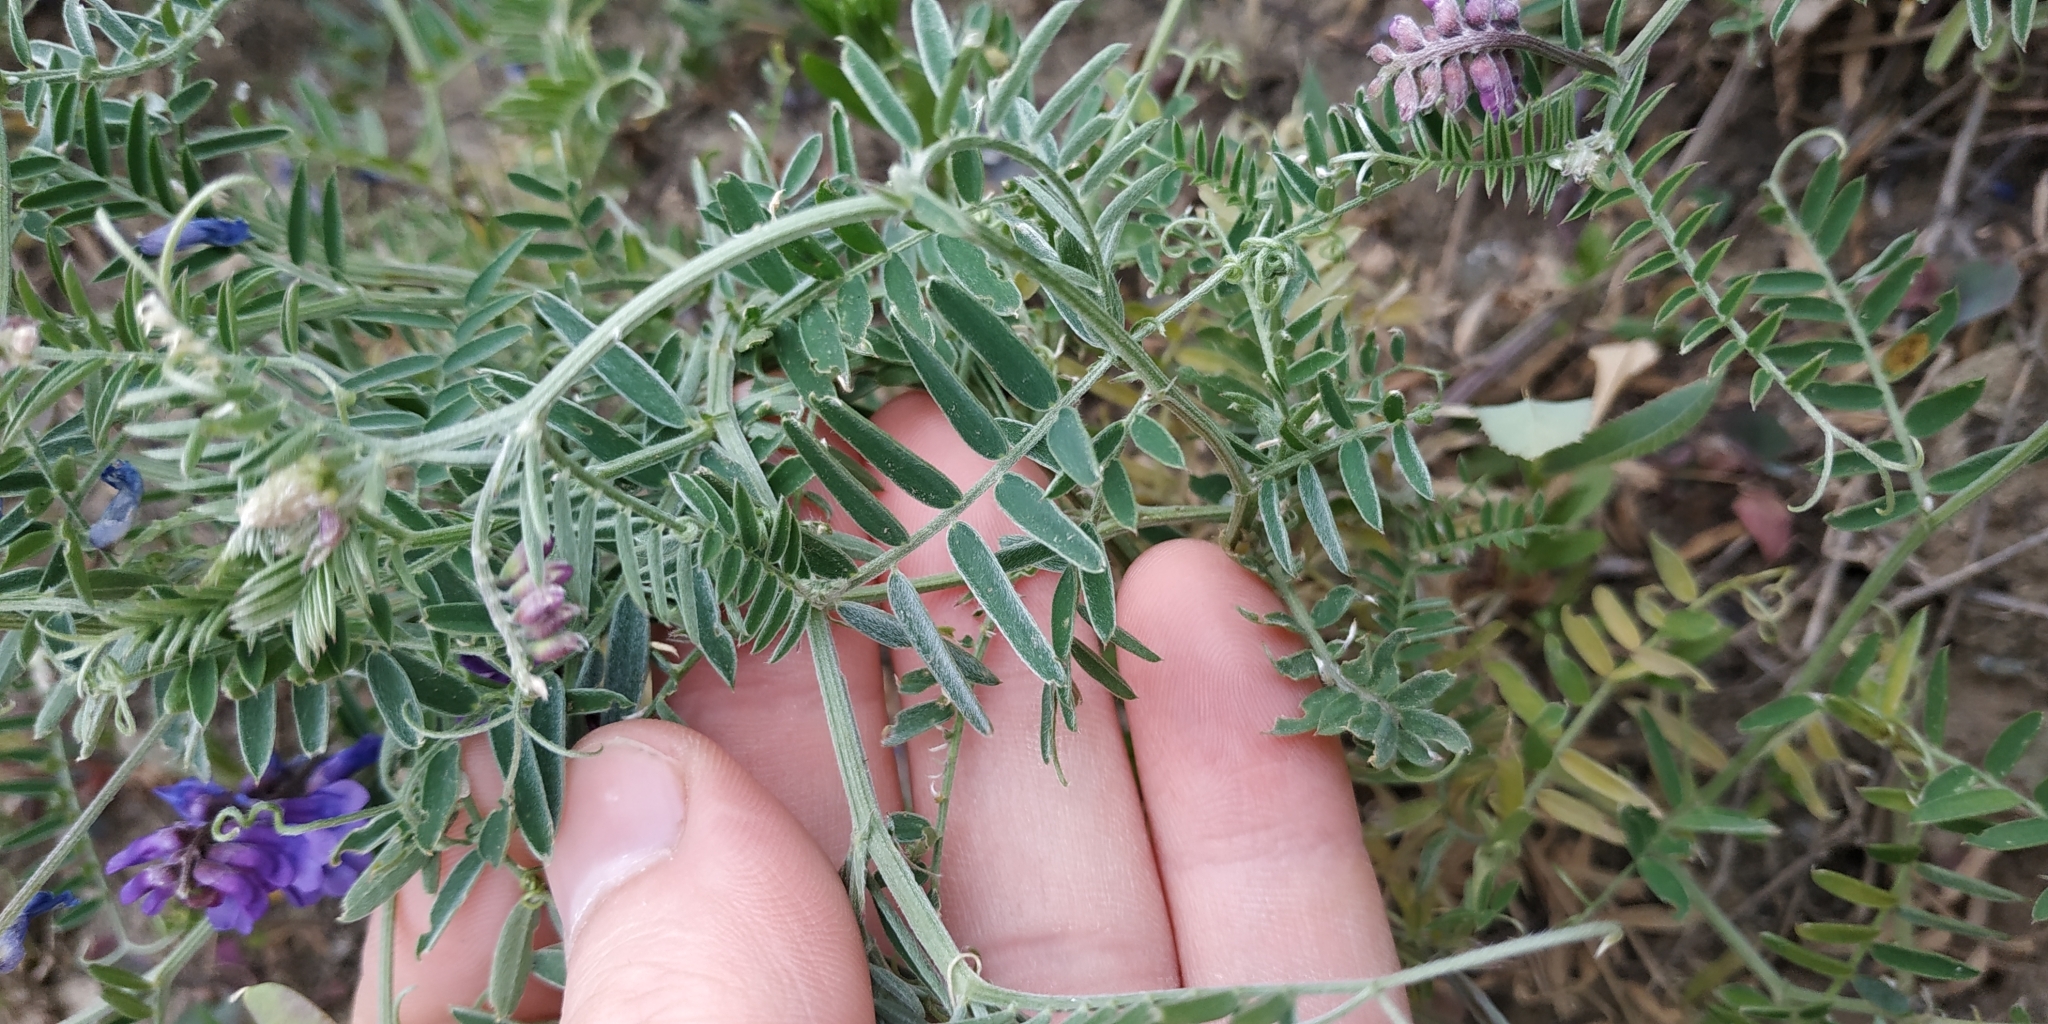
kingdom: Plantae
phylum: Tracheophyta
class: Magnoliopsida
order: Fabales
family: Fabaceae
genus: Vicia
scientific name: Vicia cracca
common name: Bird vetch
